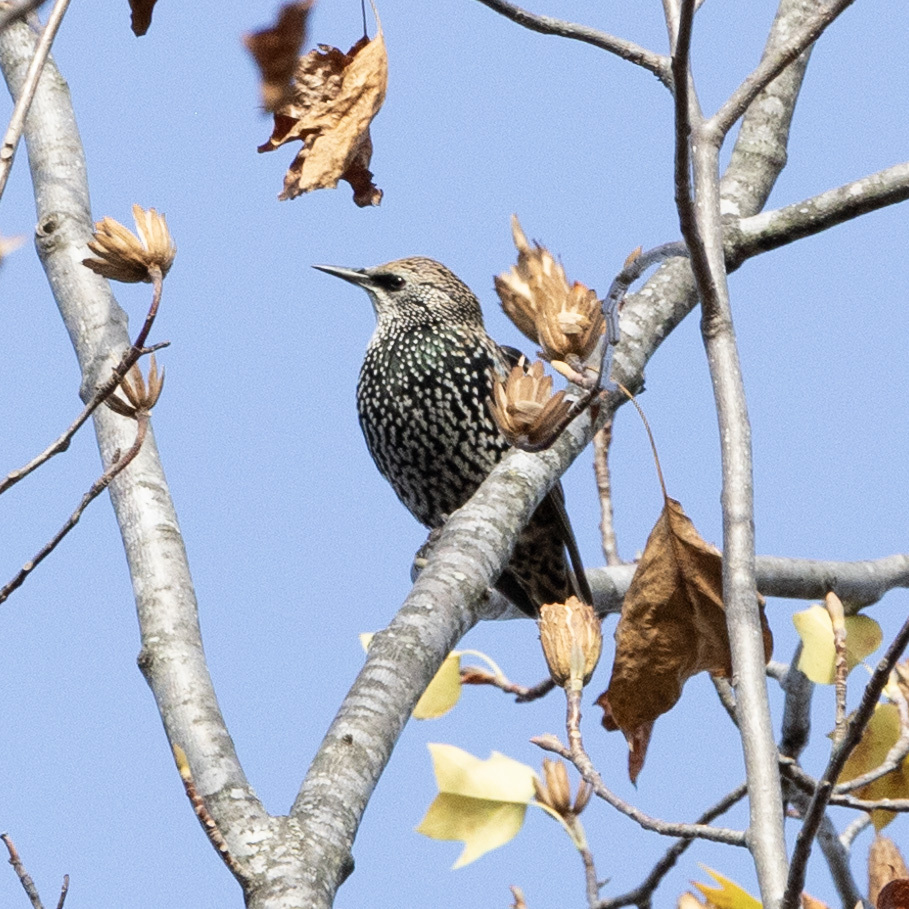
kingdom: Animalia
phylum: Chordata
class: Aves
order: Passeriformes
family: Sturnidae
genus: Sturnus
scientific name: Sturnus vulgaris
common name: Common starling
